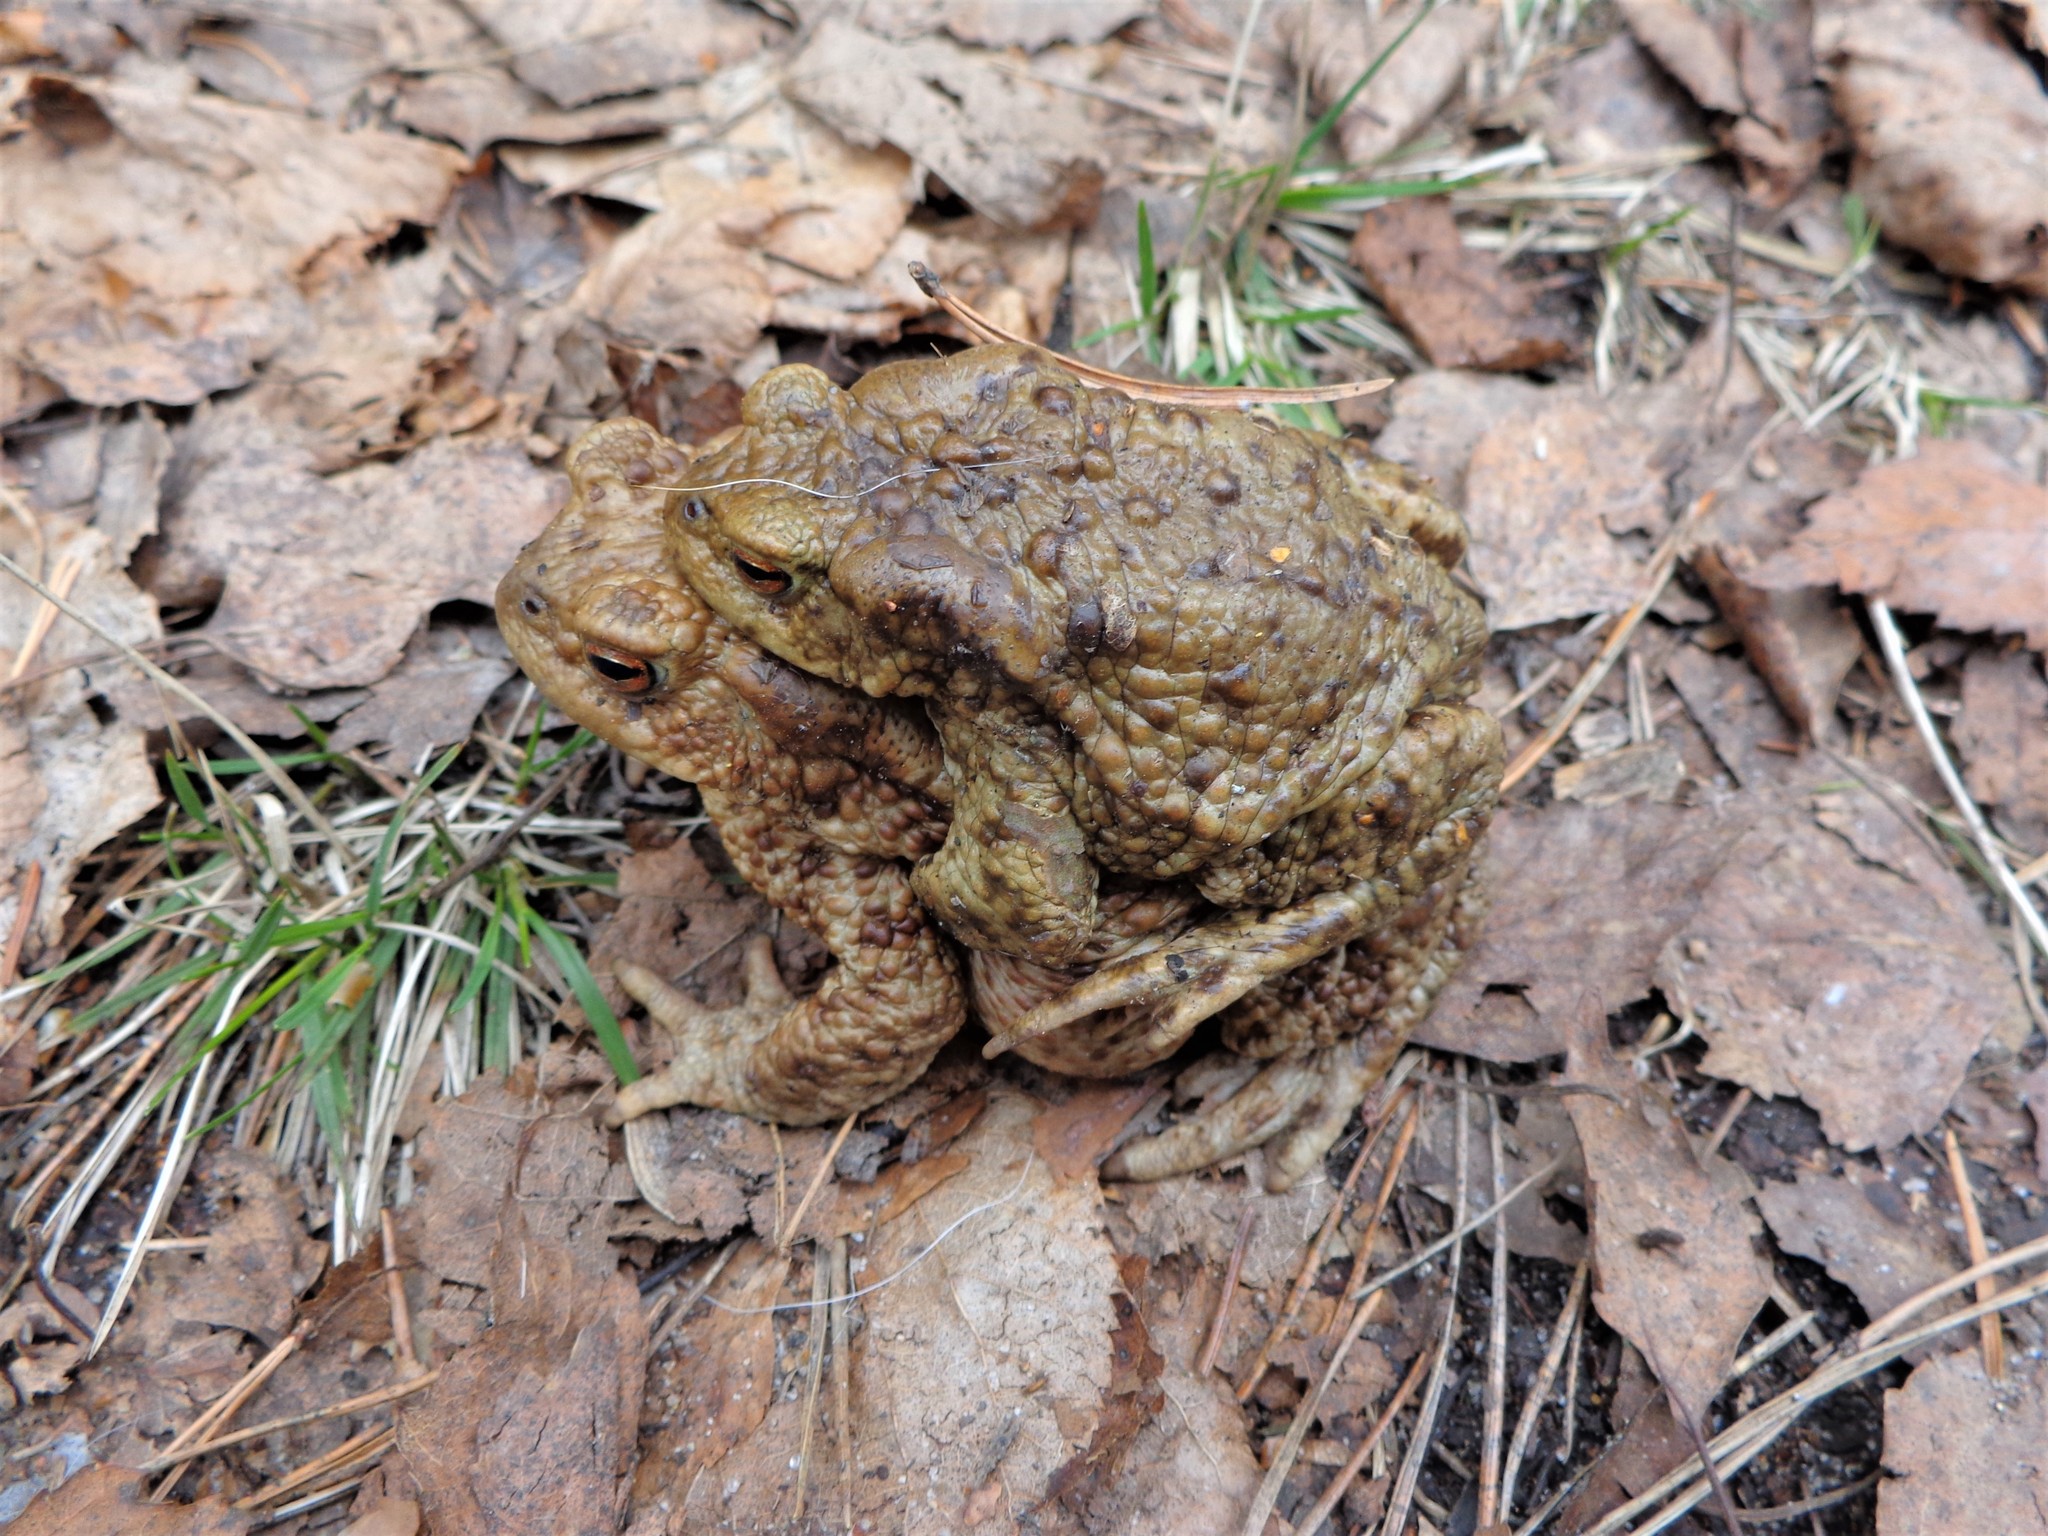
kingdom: Animalia
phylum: Chordata
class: Amphibia
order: Anura
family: Bufonidae
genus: Bufo
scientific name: Bufo bufo
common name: Common toad
